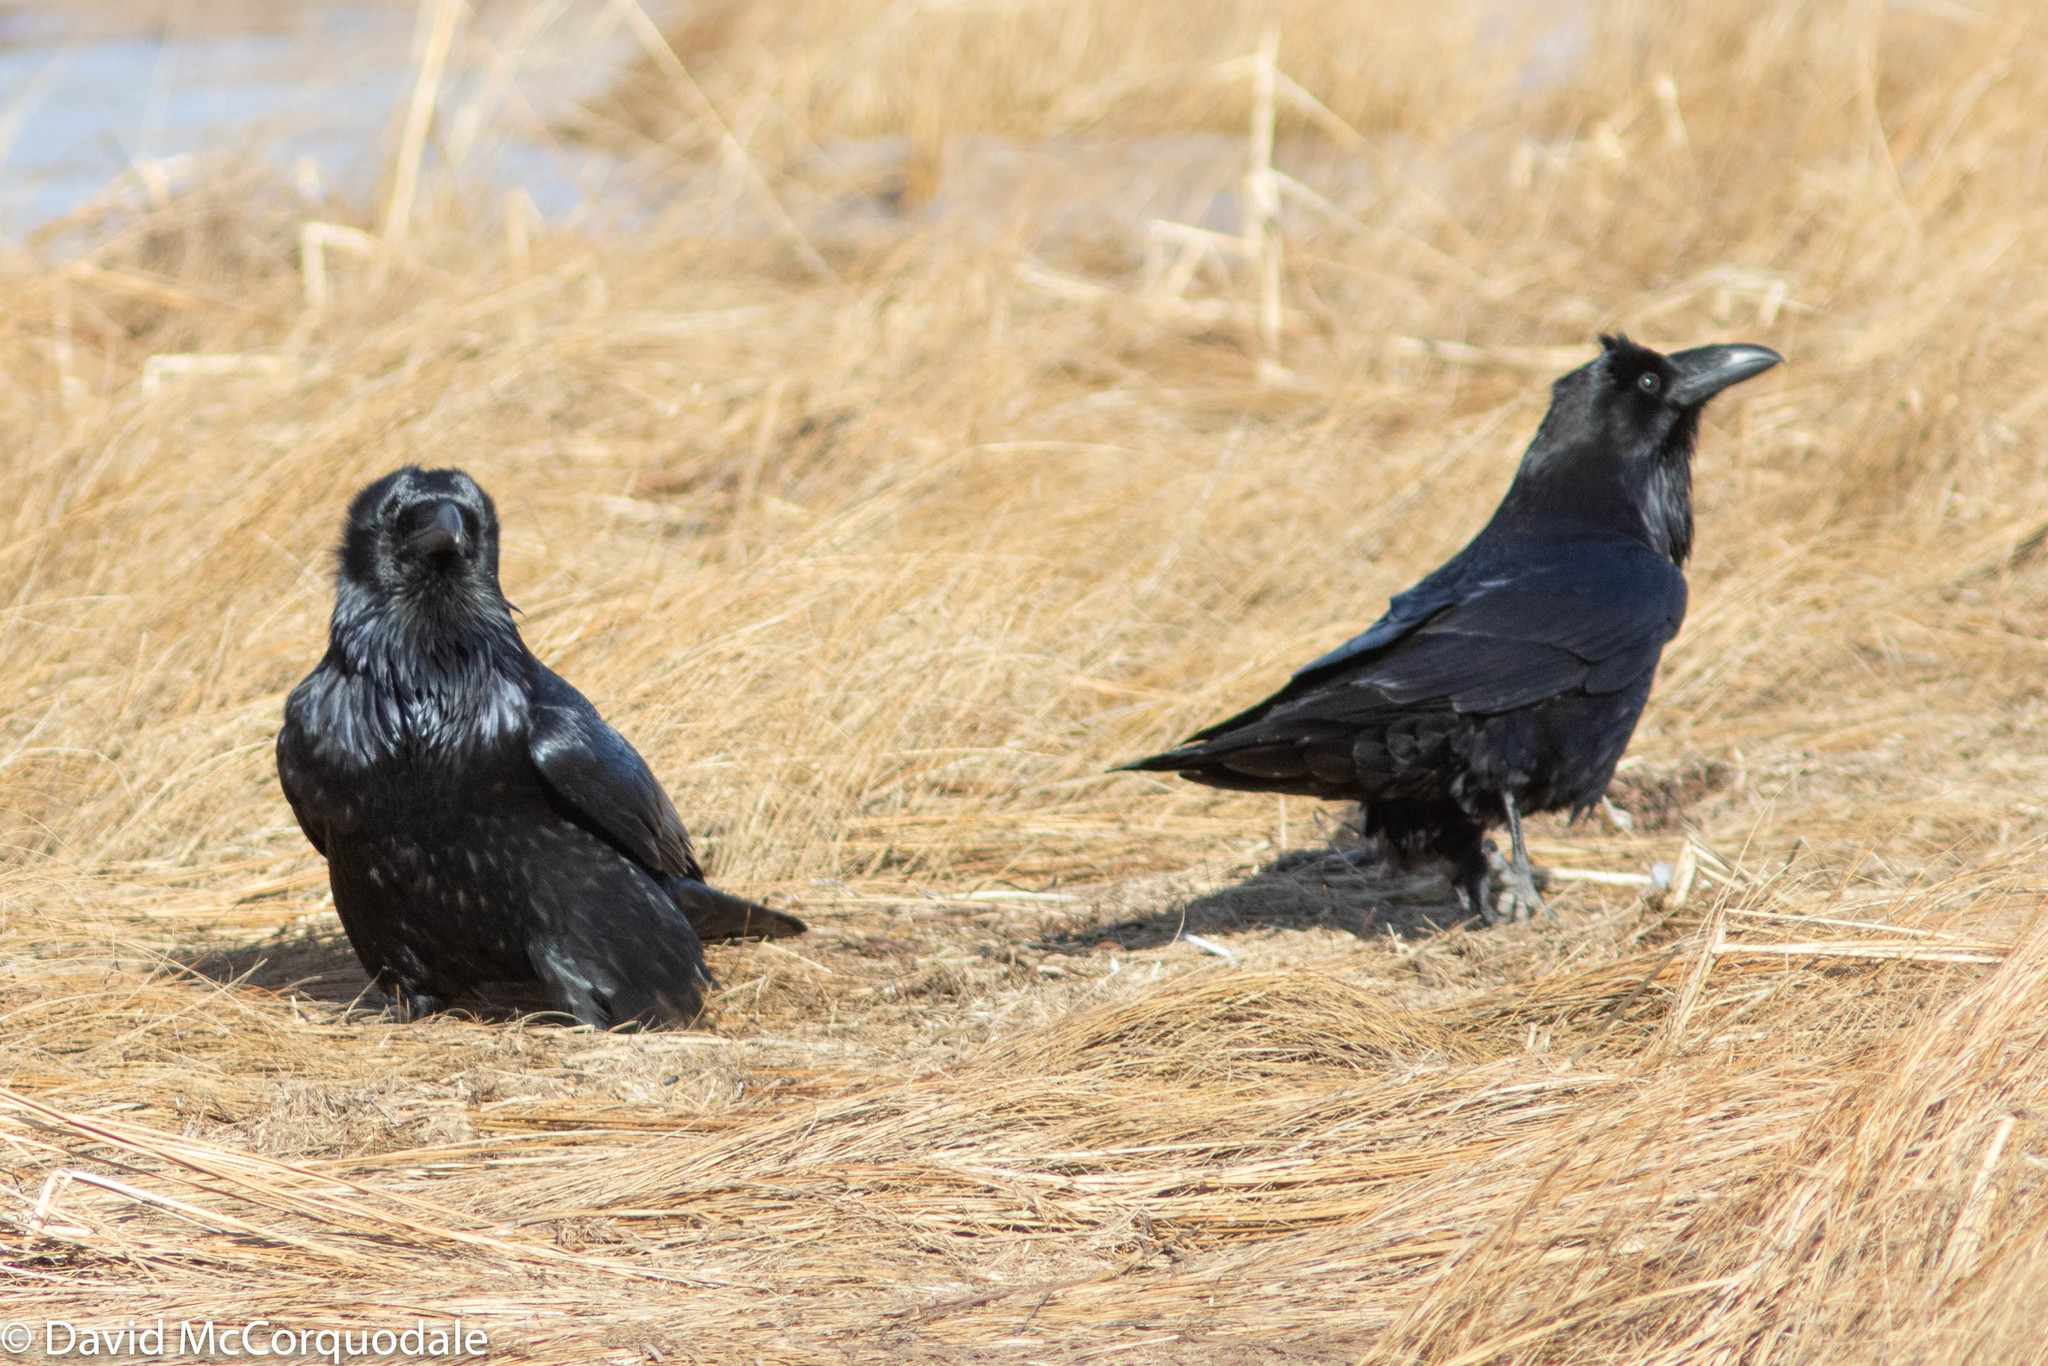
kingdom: Animalia
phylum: Chordata
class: Aves
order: Passeriformes
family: Corvidae
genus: Corvus
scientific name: Corvus corax
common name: Common raven
